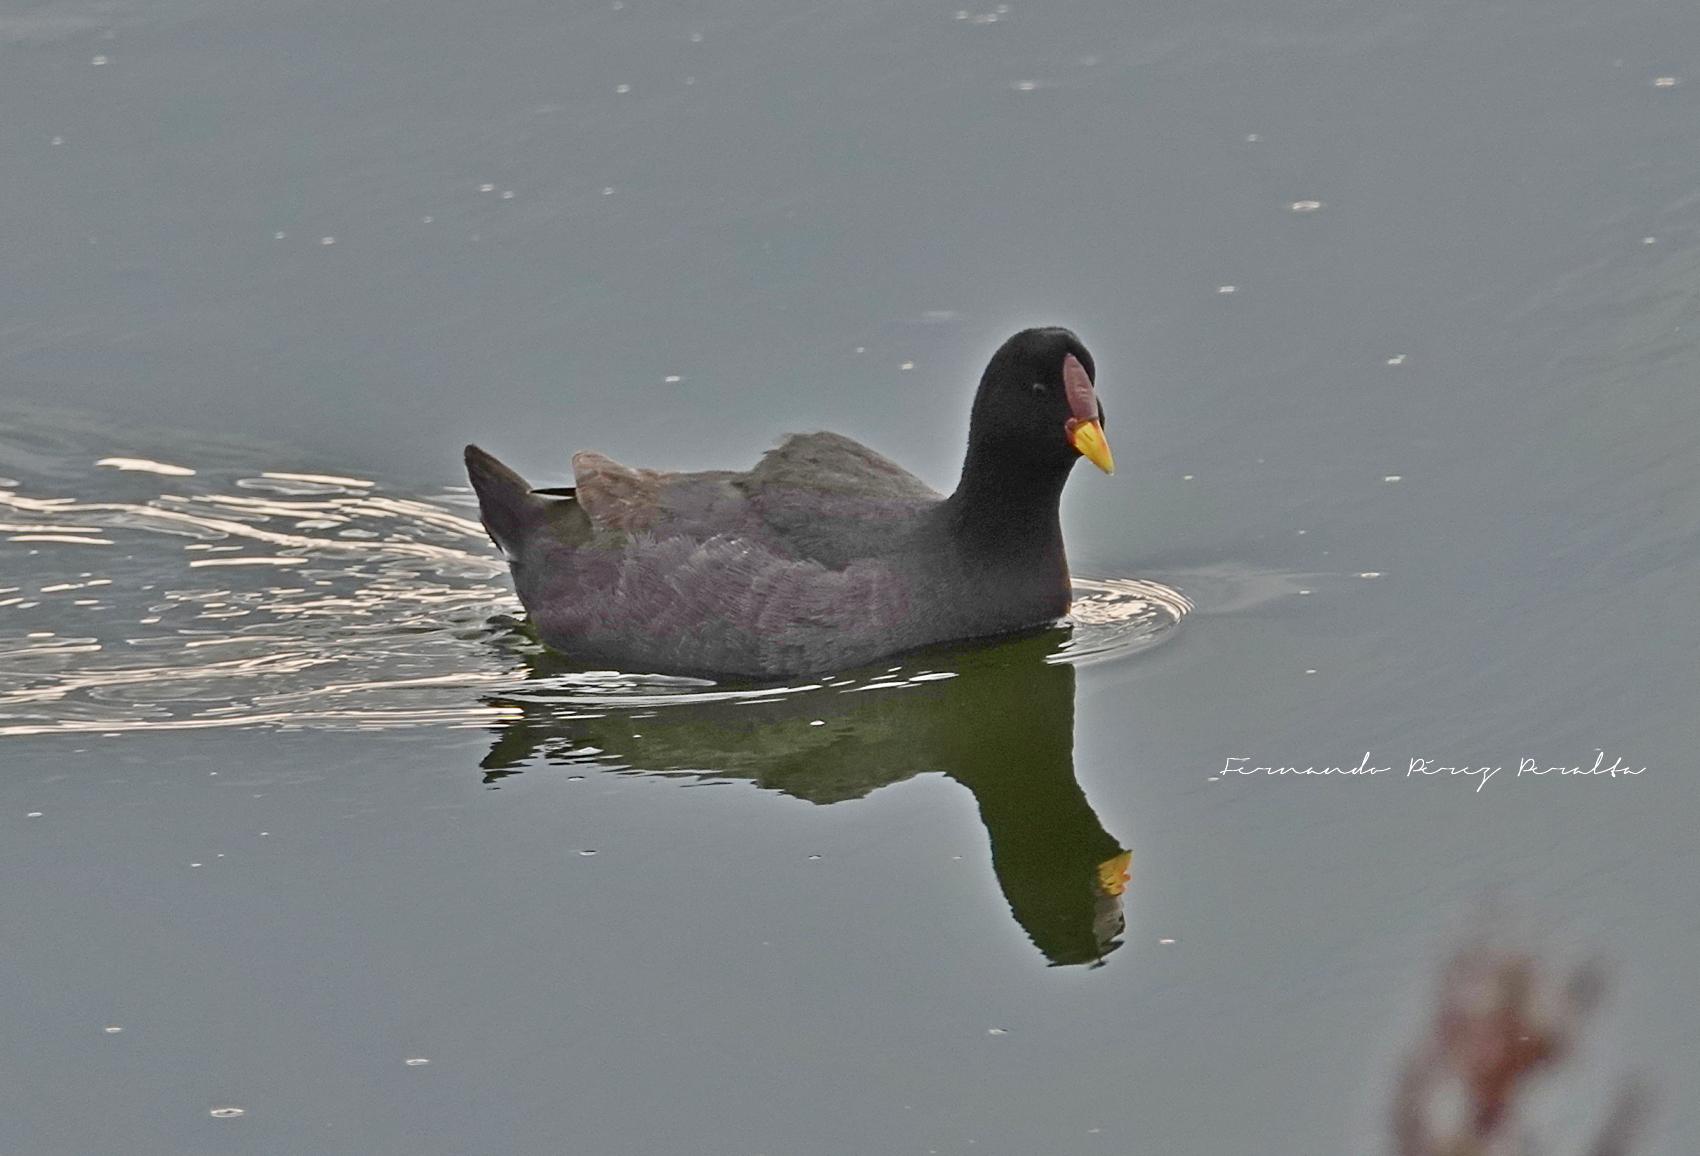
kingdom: Animalia
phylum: Chordata
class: Aves
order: Gruiformes
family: Rallidae
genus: Fulica
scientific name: Fulica rufifrons
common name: Red-fronted coot
